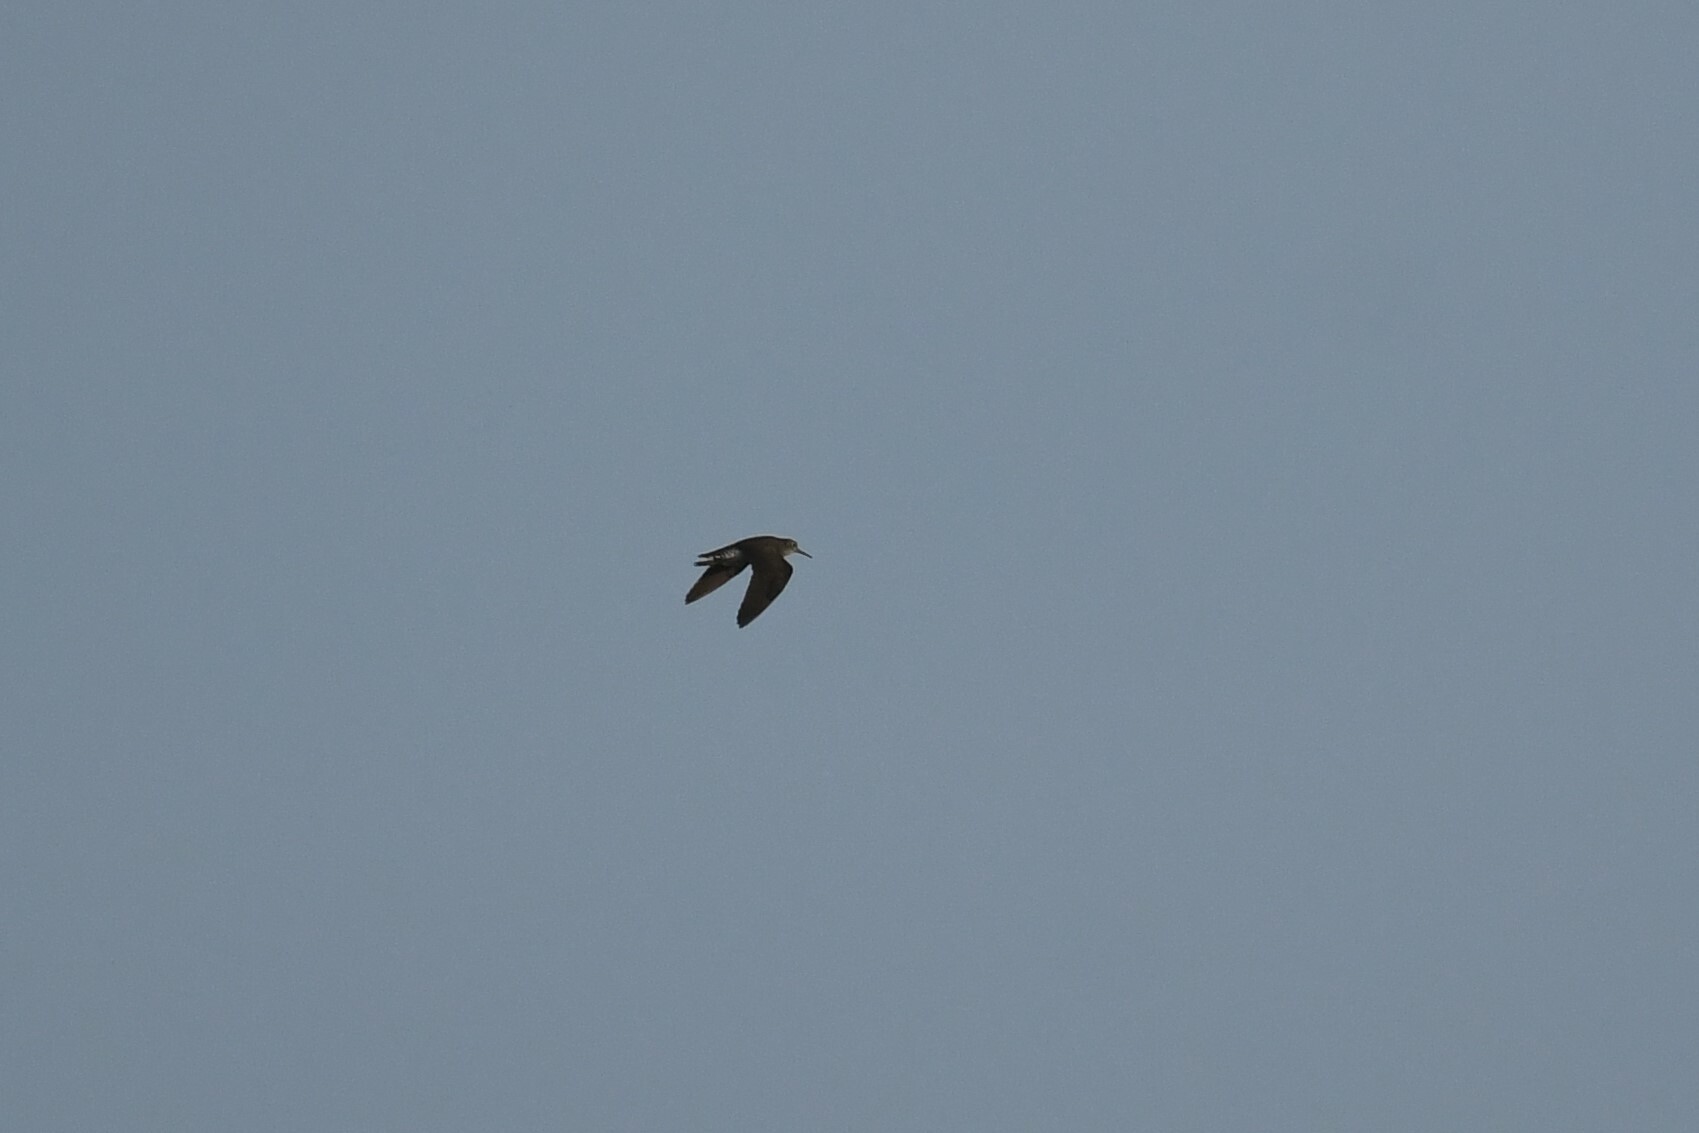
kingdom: Animalia
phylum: Chordata
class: Aves
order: Charadriiformes
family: Scolopacidae
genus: Tringa
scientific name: Tringa solitaria
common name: Solitary sandpiper
